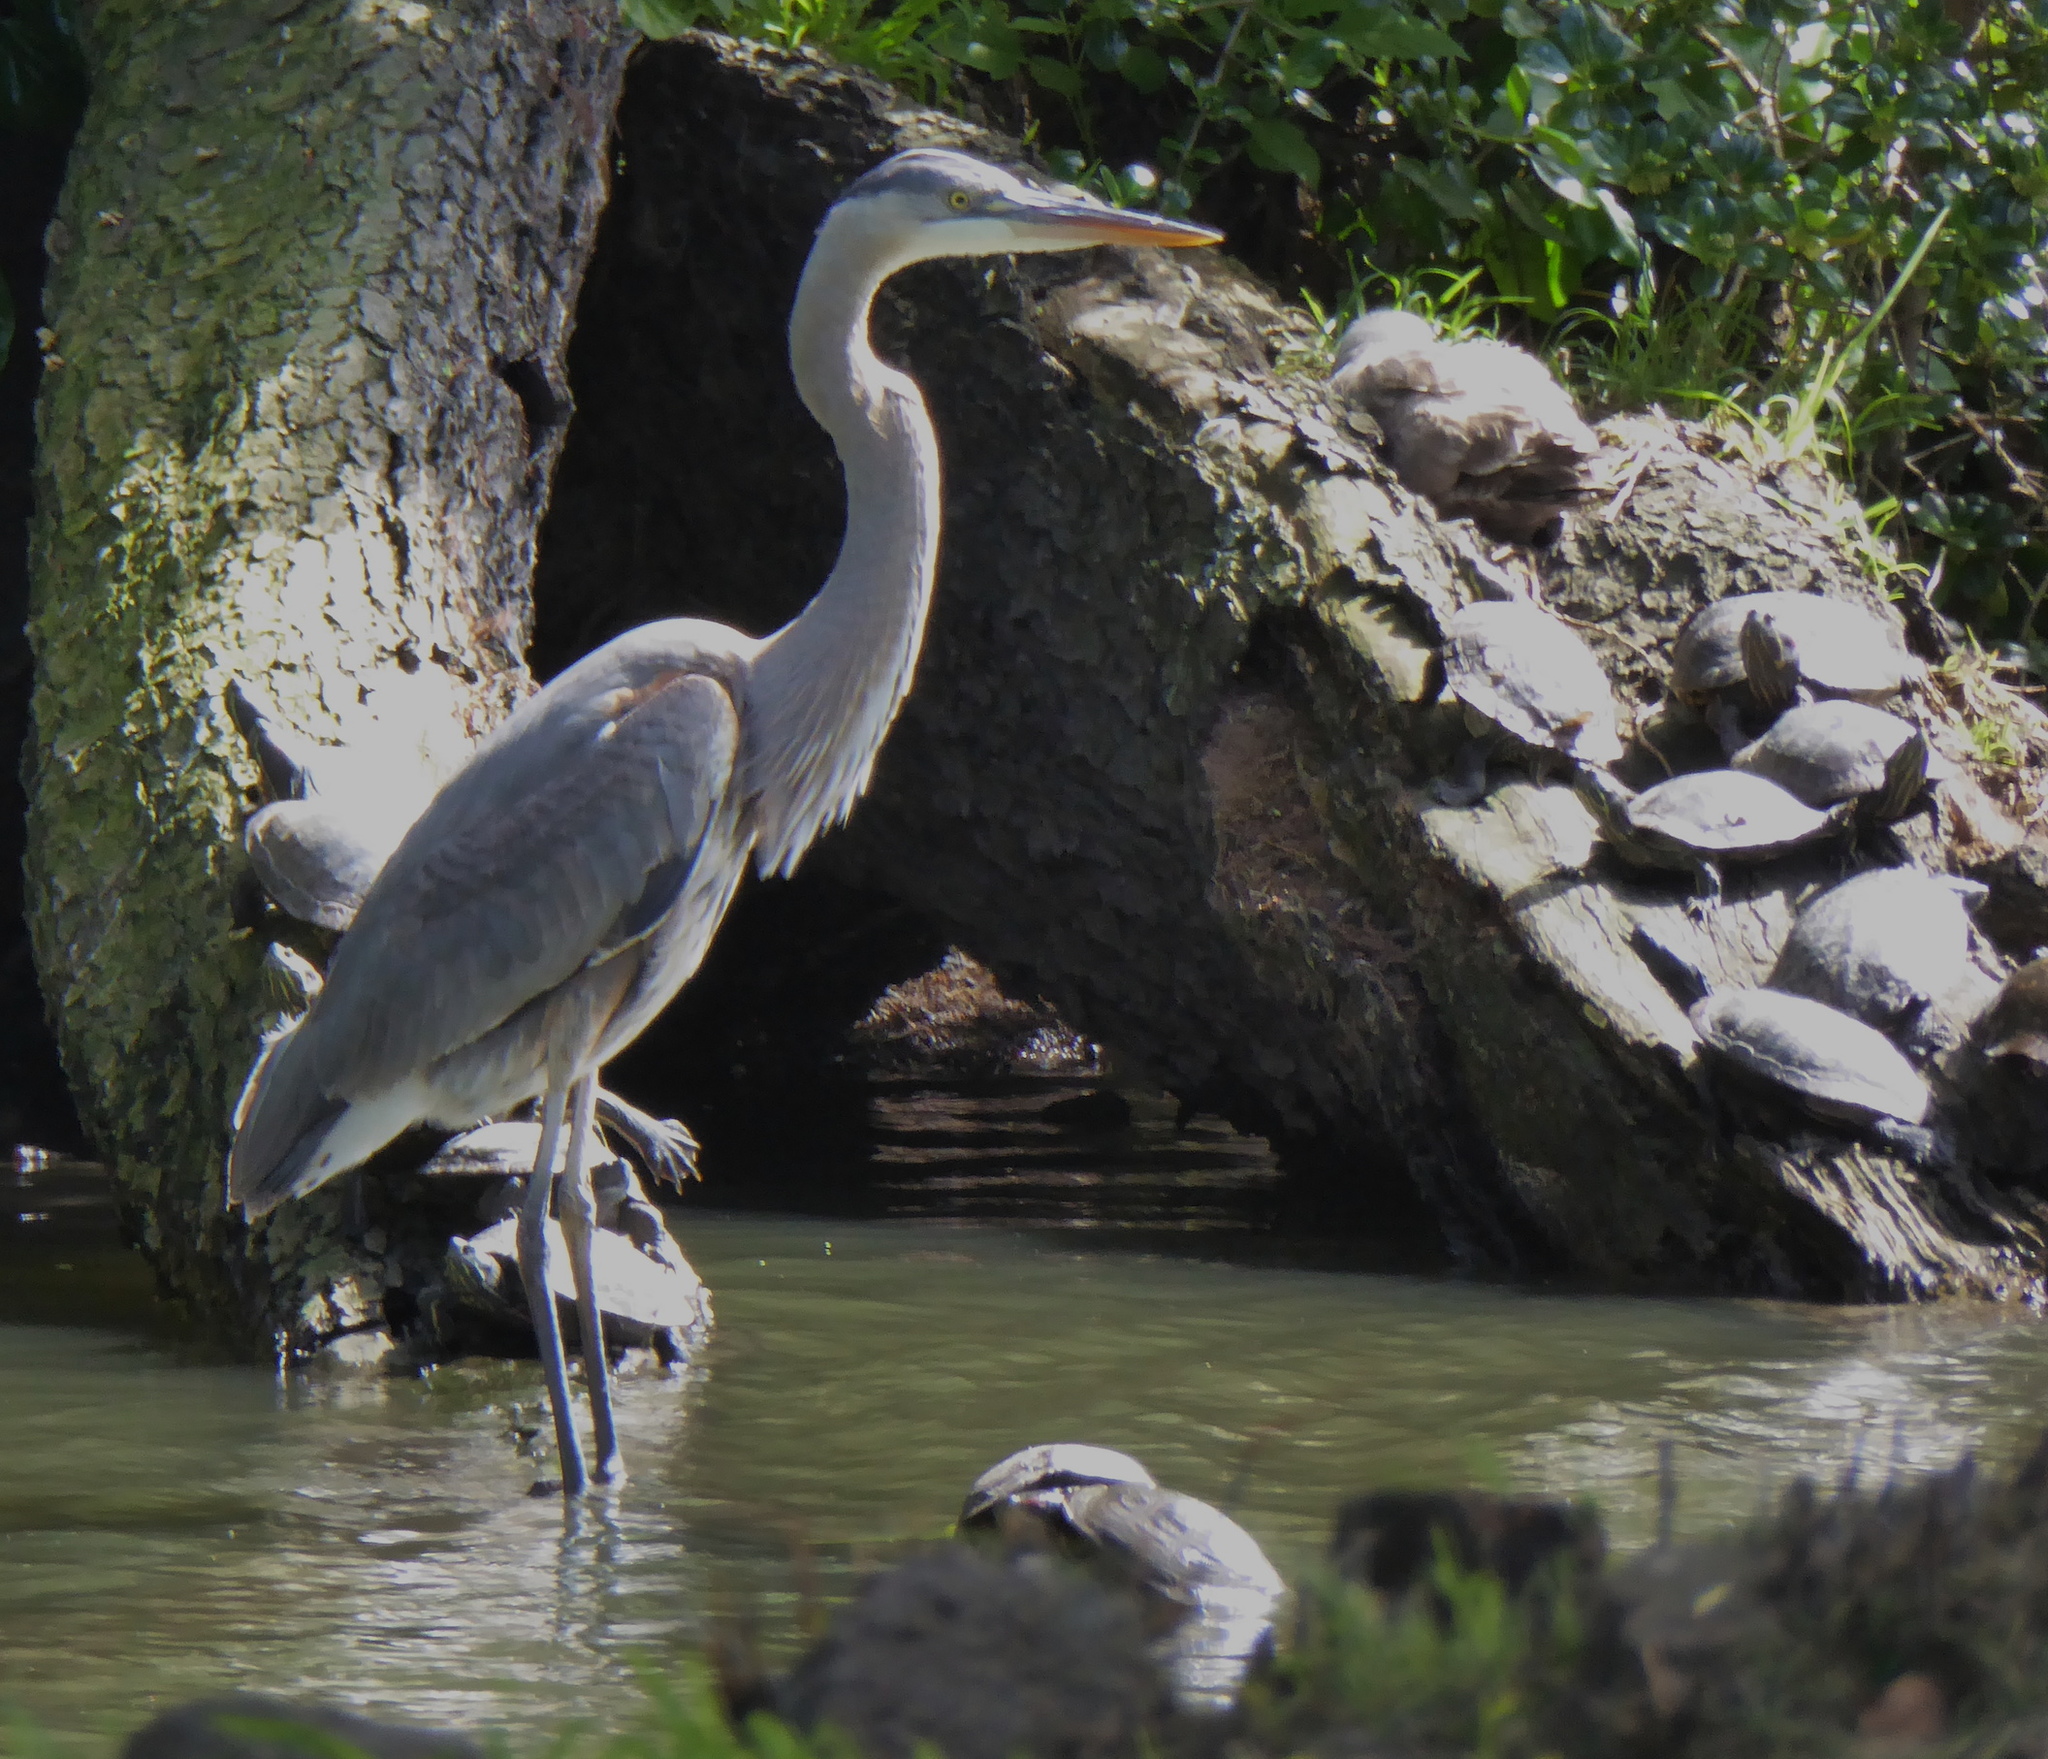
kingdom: Animalia
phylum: Chordata
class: Aves
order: Pelecaniformes
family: Ardeidae
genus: Ardea
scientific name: Ardea herodias
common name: Great blue heron
